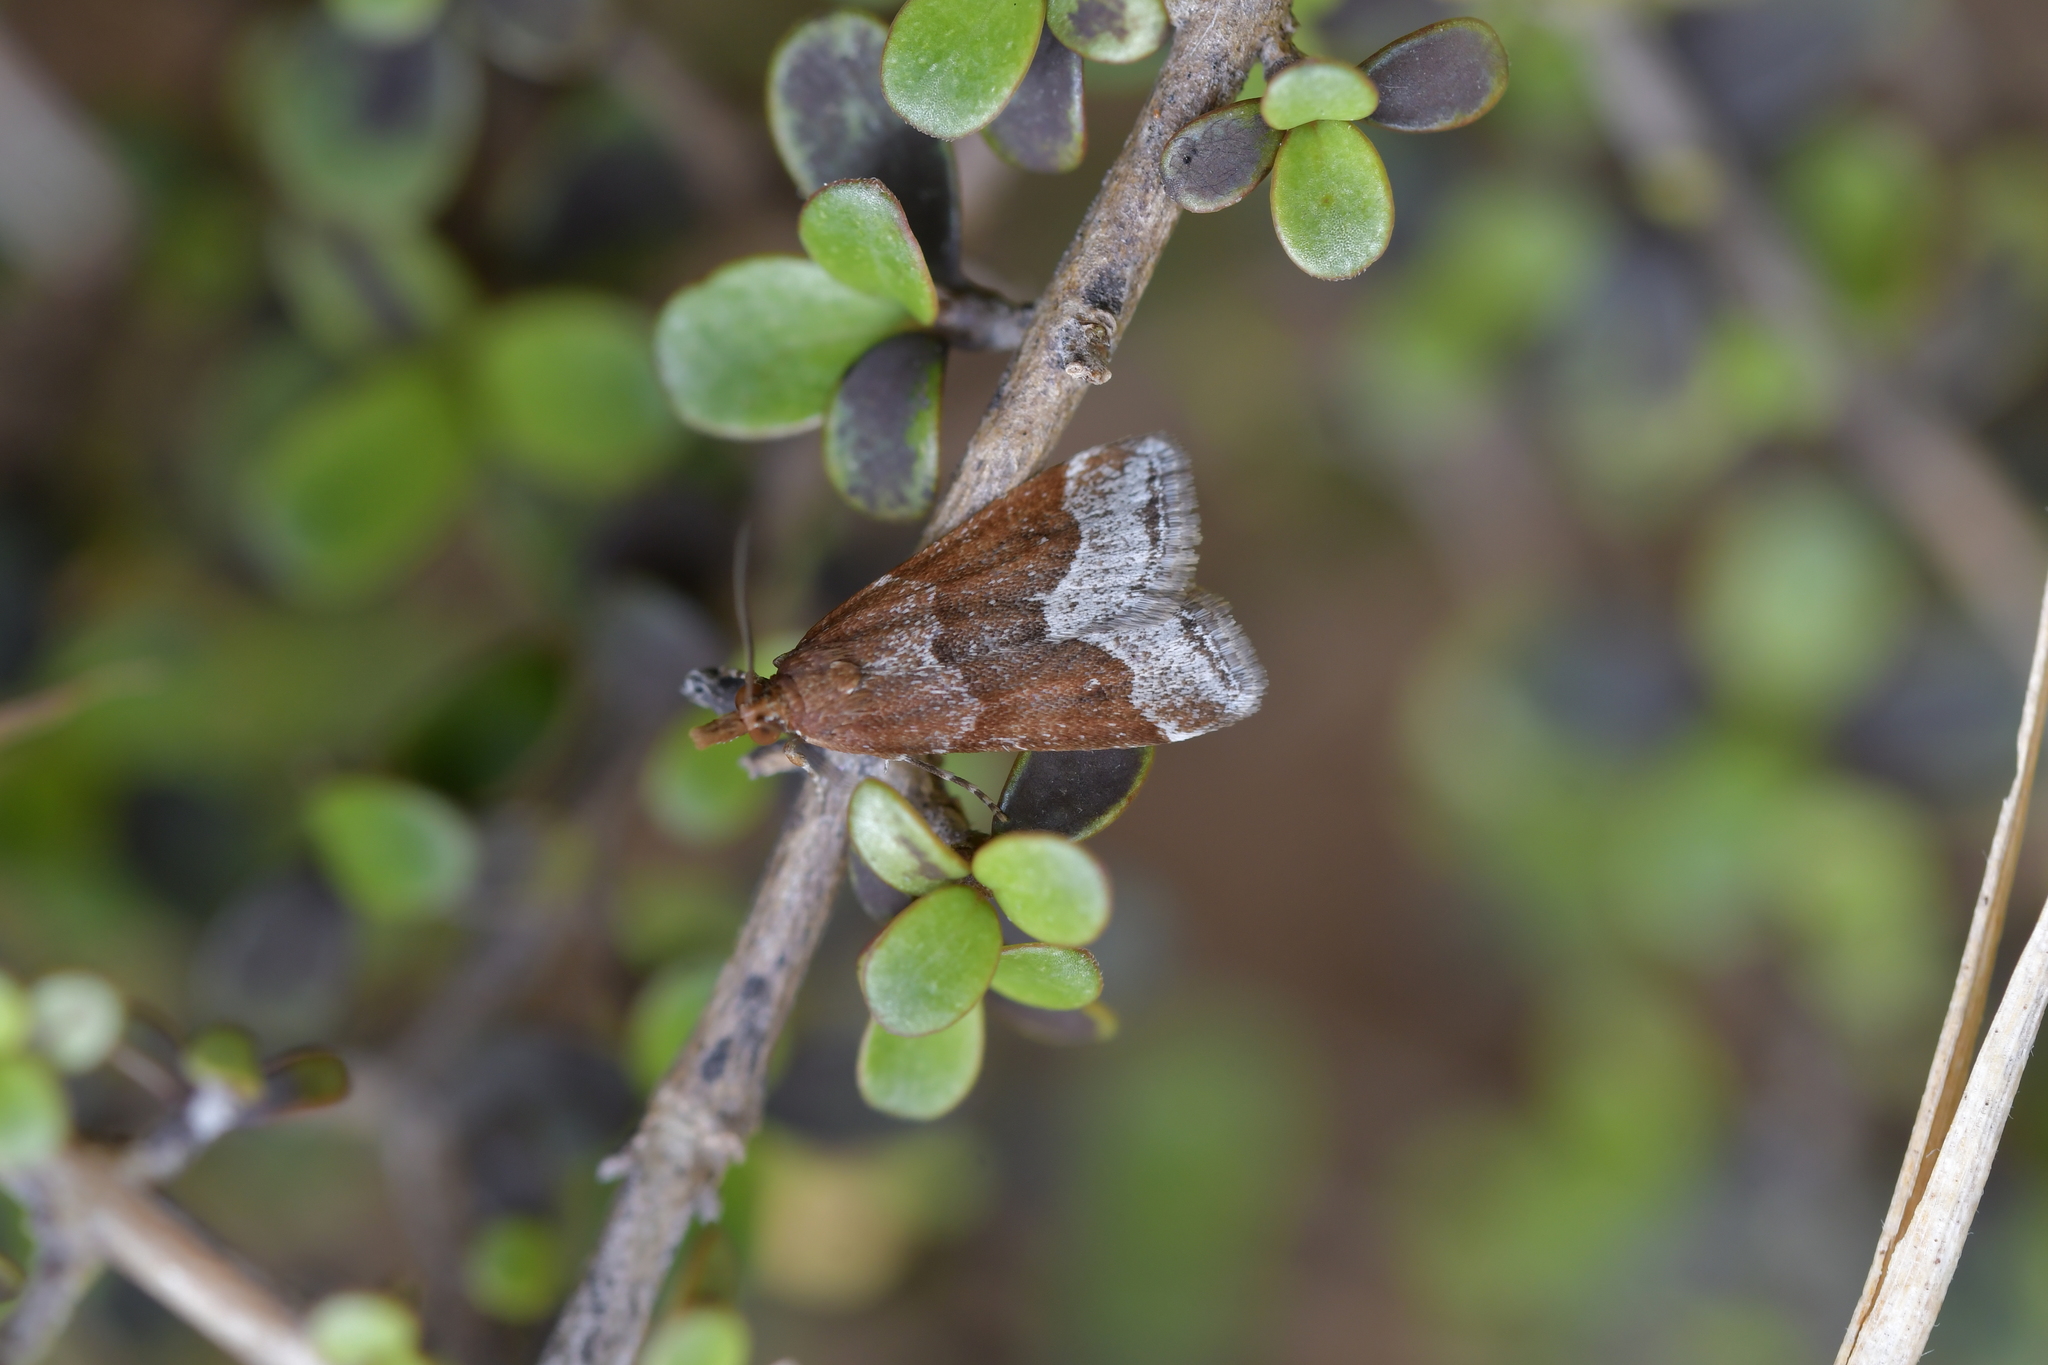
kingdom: Animalia
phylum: Arthropoda
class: Insecta
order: Lepidoptera
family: Crambidae
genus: Eudonia
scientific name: Eudonia feredayi
